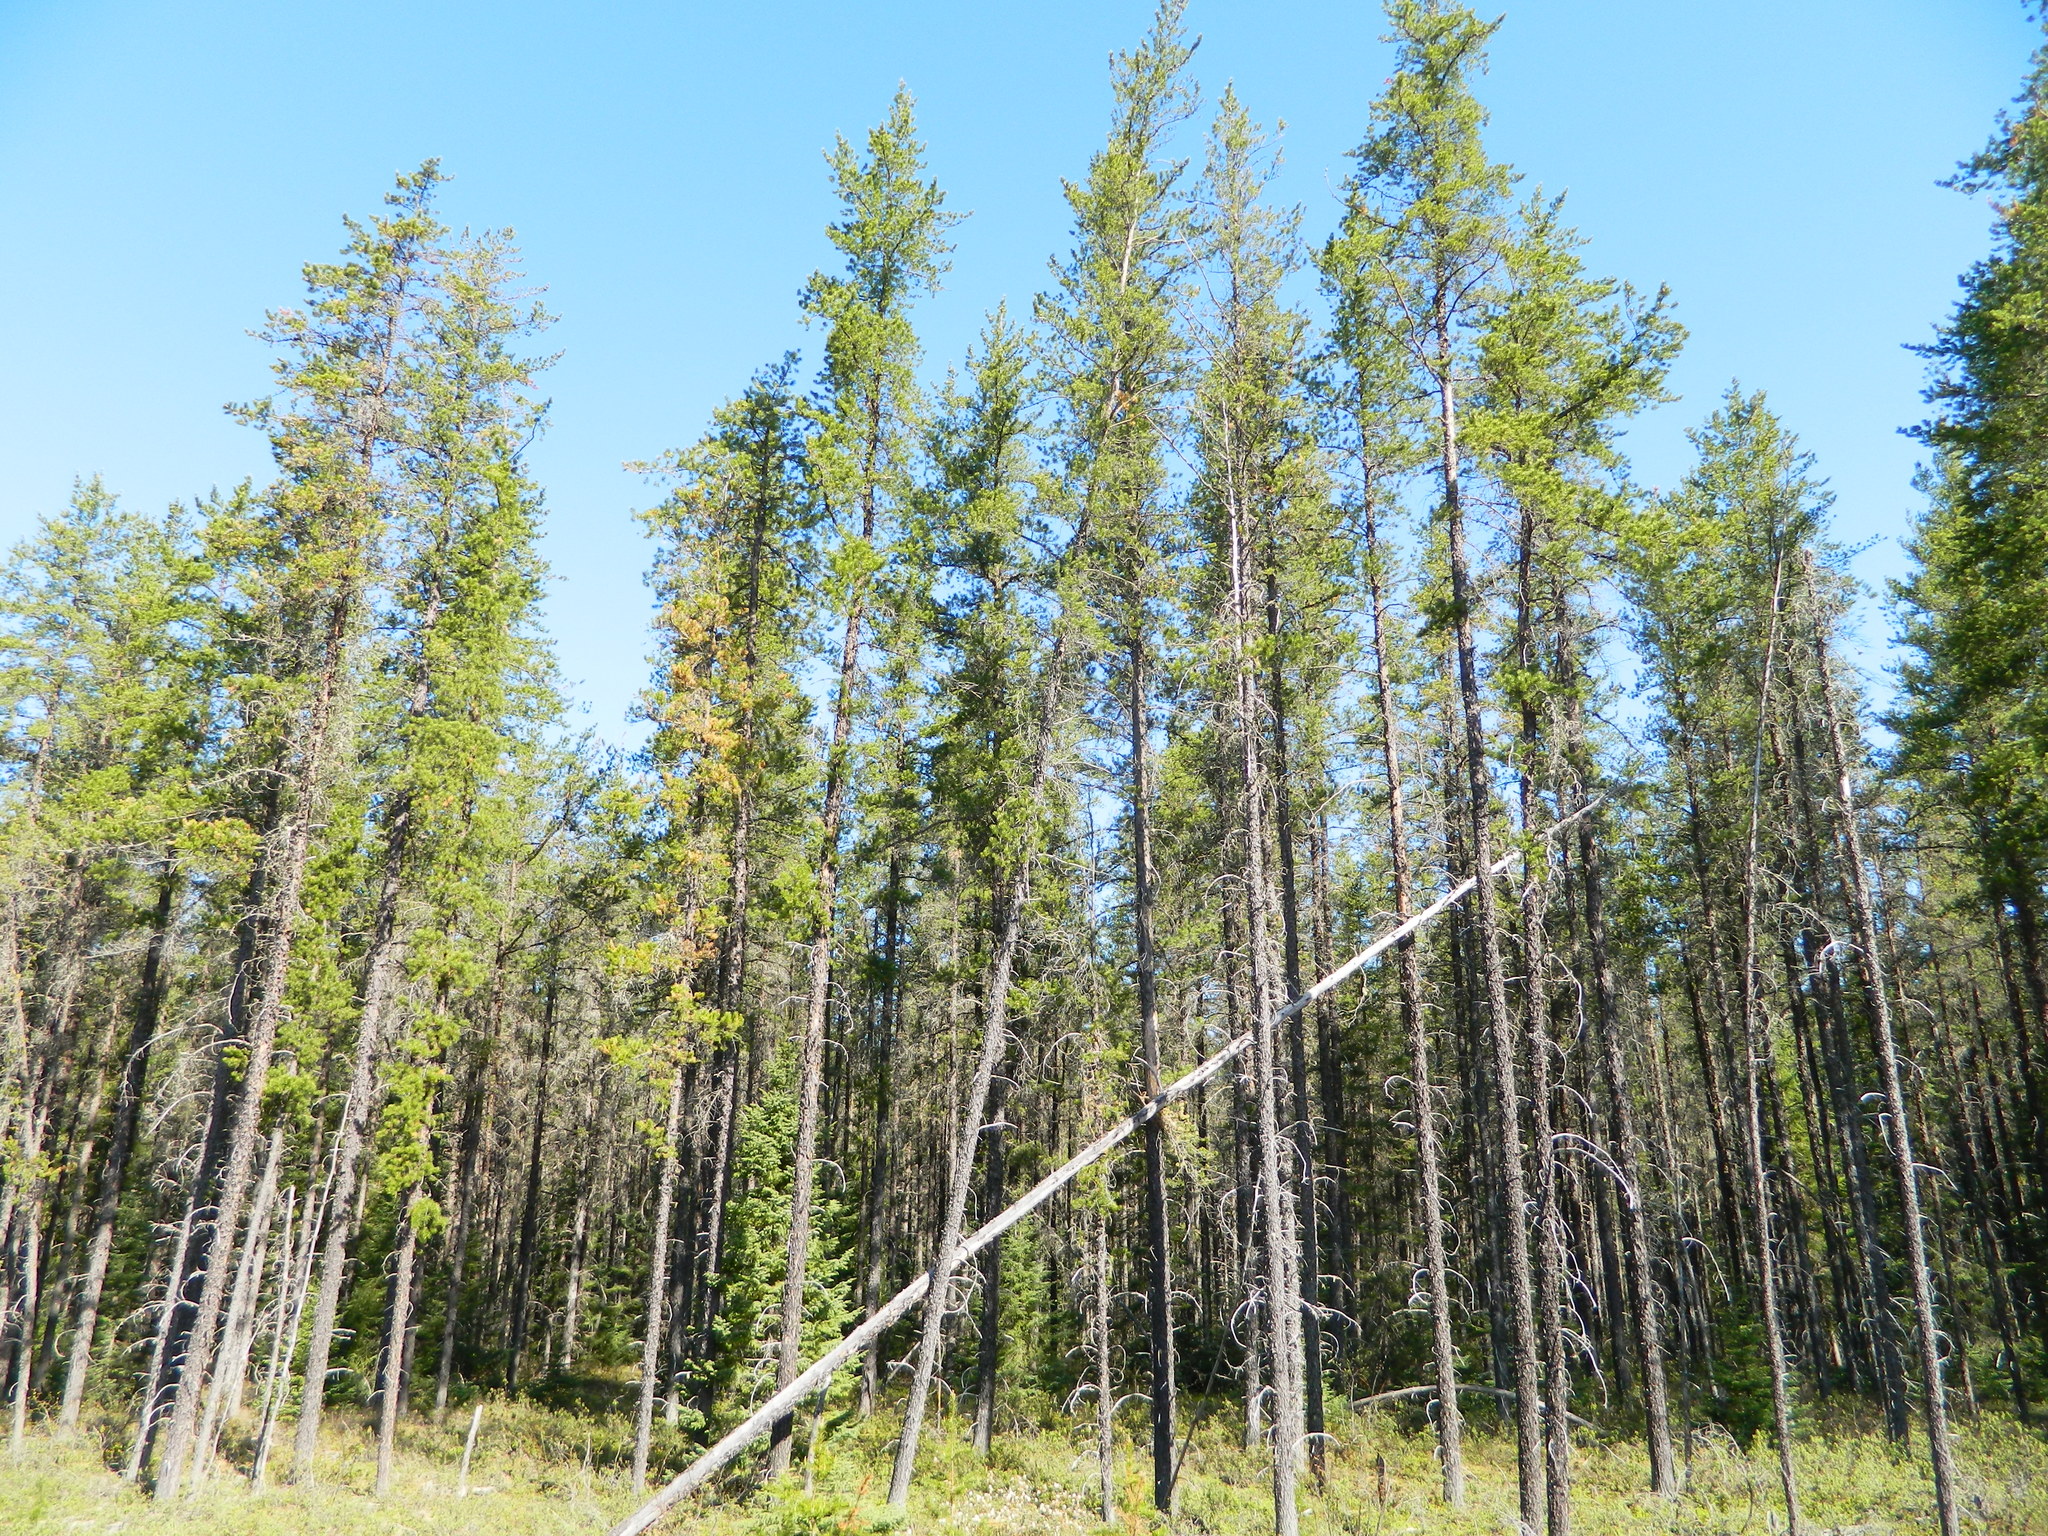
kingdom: Plantae
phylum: Tracheophyta
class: Pinopsida
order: Pinales
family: Pinaceae
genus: Pinus
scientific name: Pinus banksiana
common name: Jack pine
